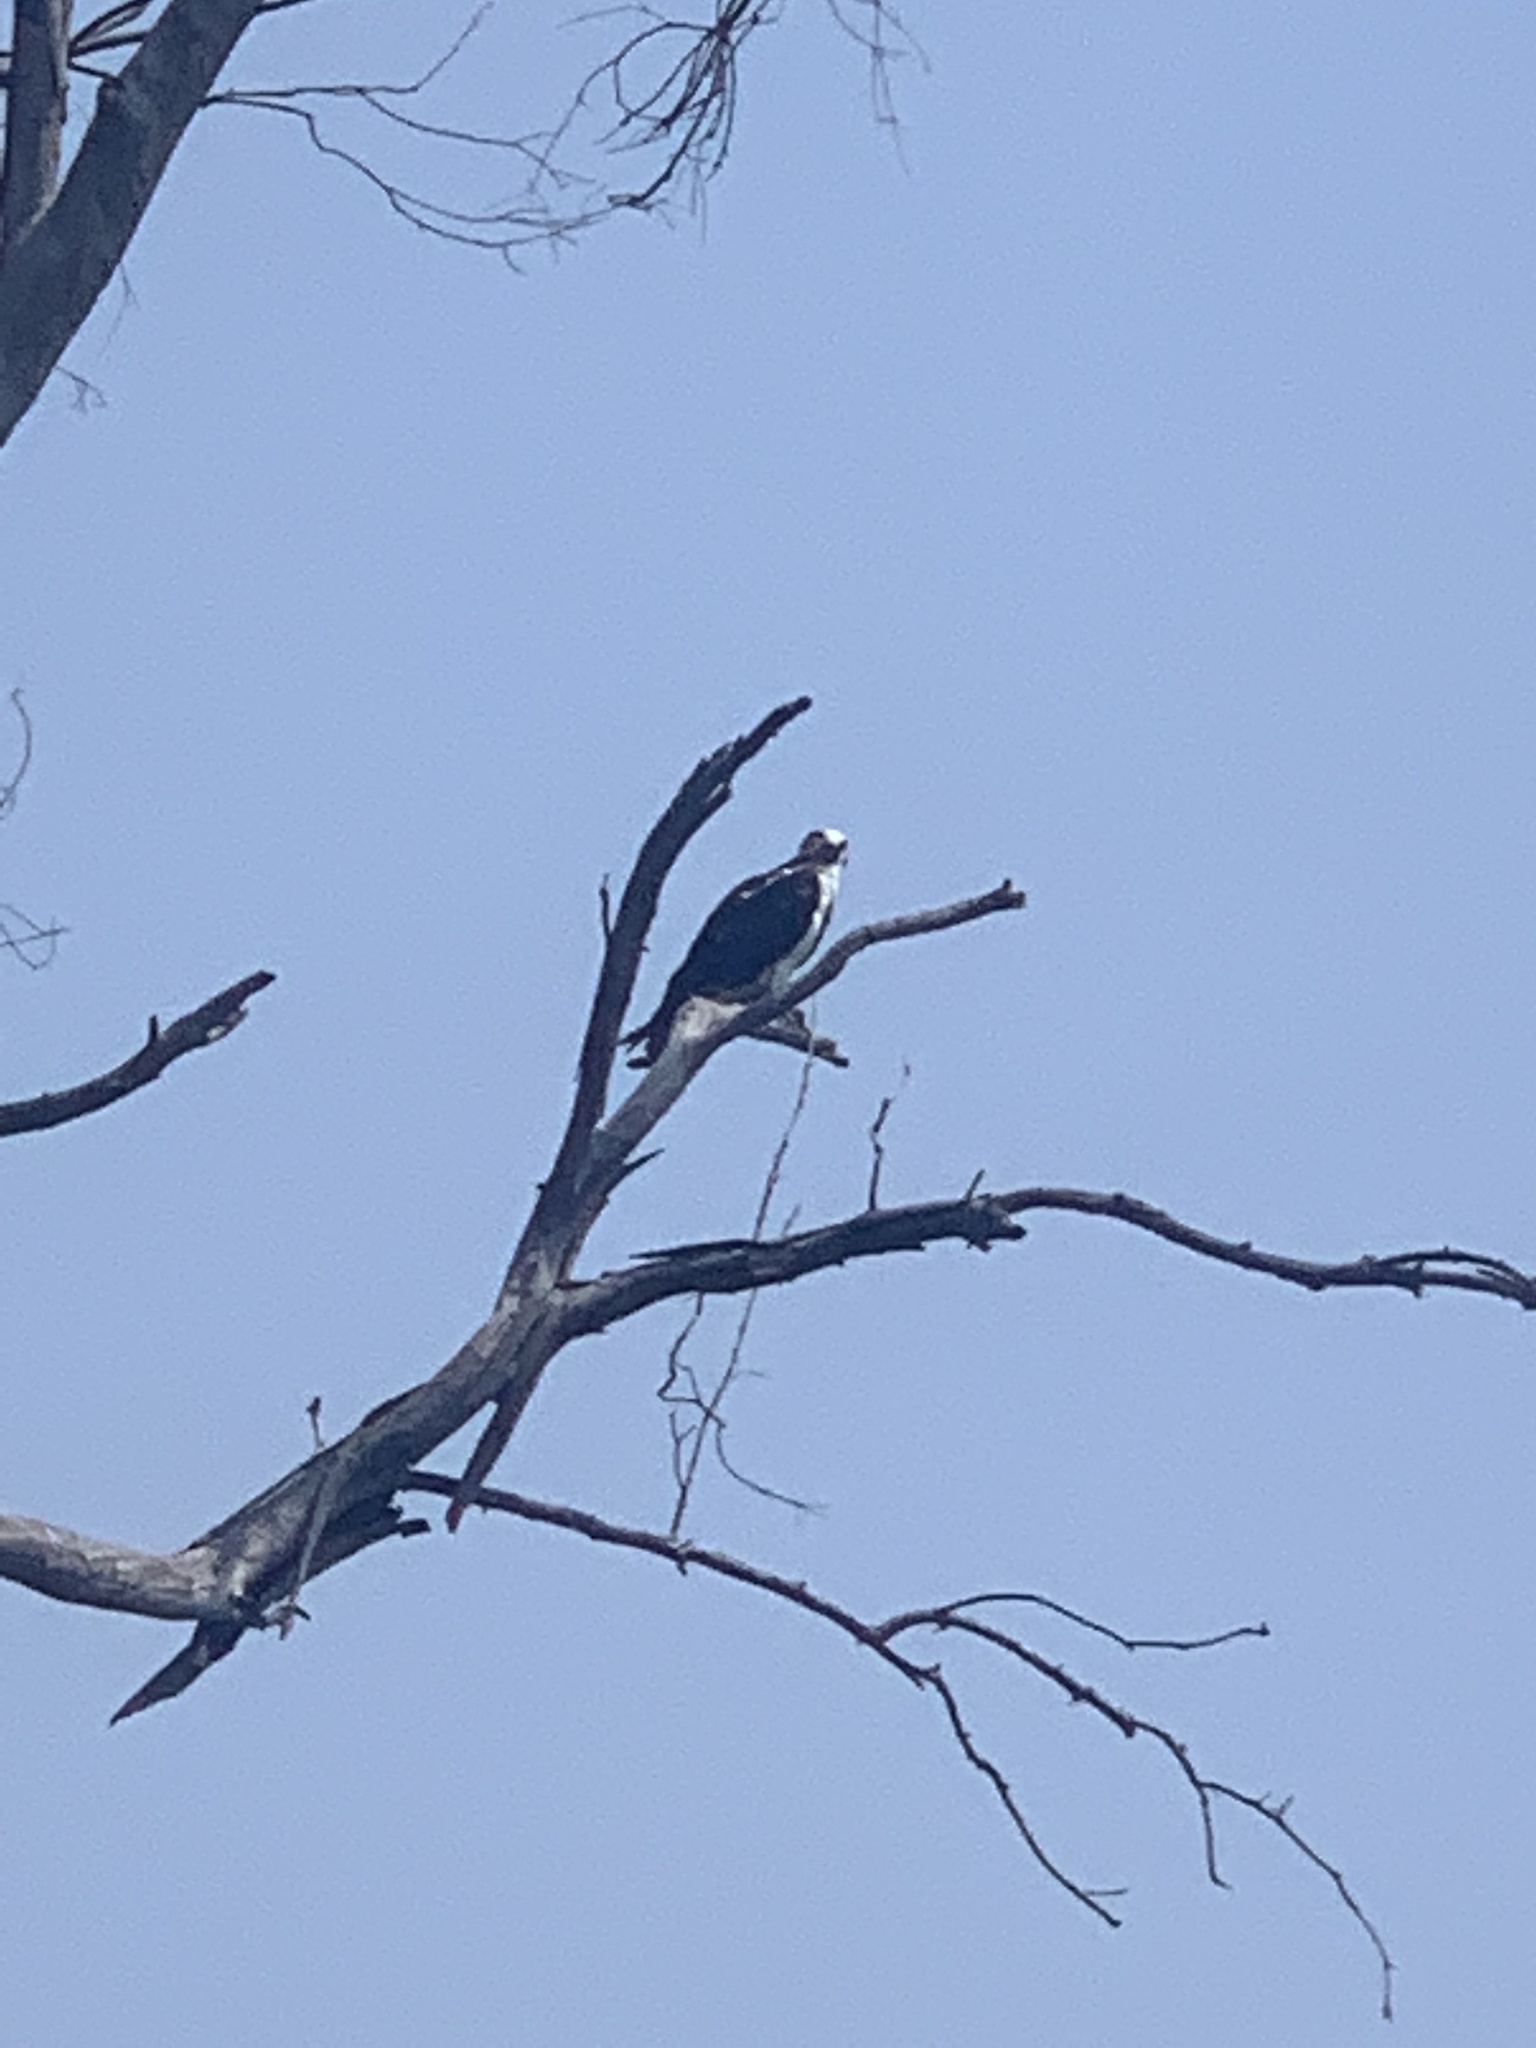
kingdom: Animalia
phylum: Chordata
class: Aves
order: Accipitriformes
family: Pandionidae
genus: Pandion
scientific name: Pandion haliaetus
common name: Osprey
